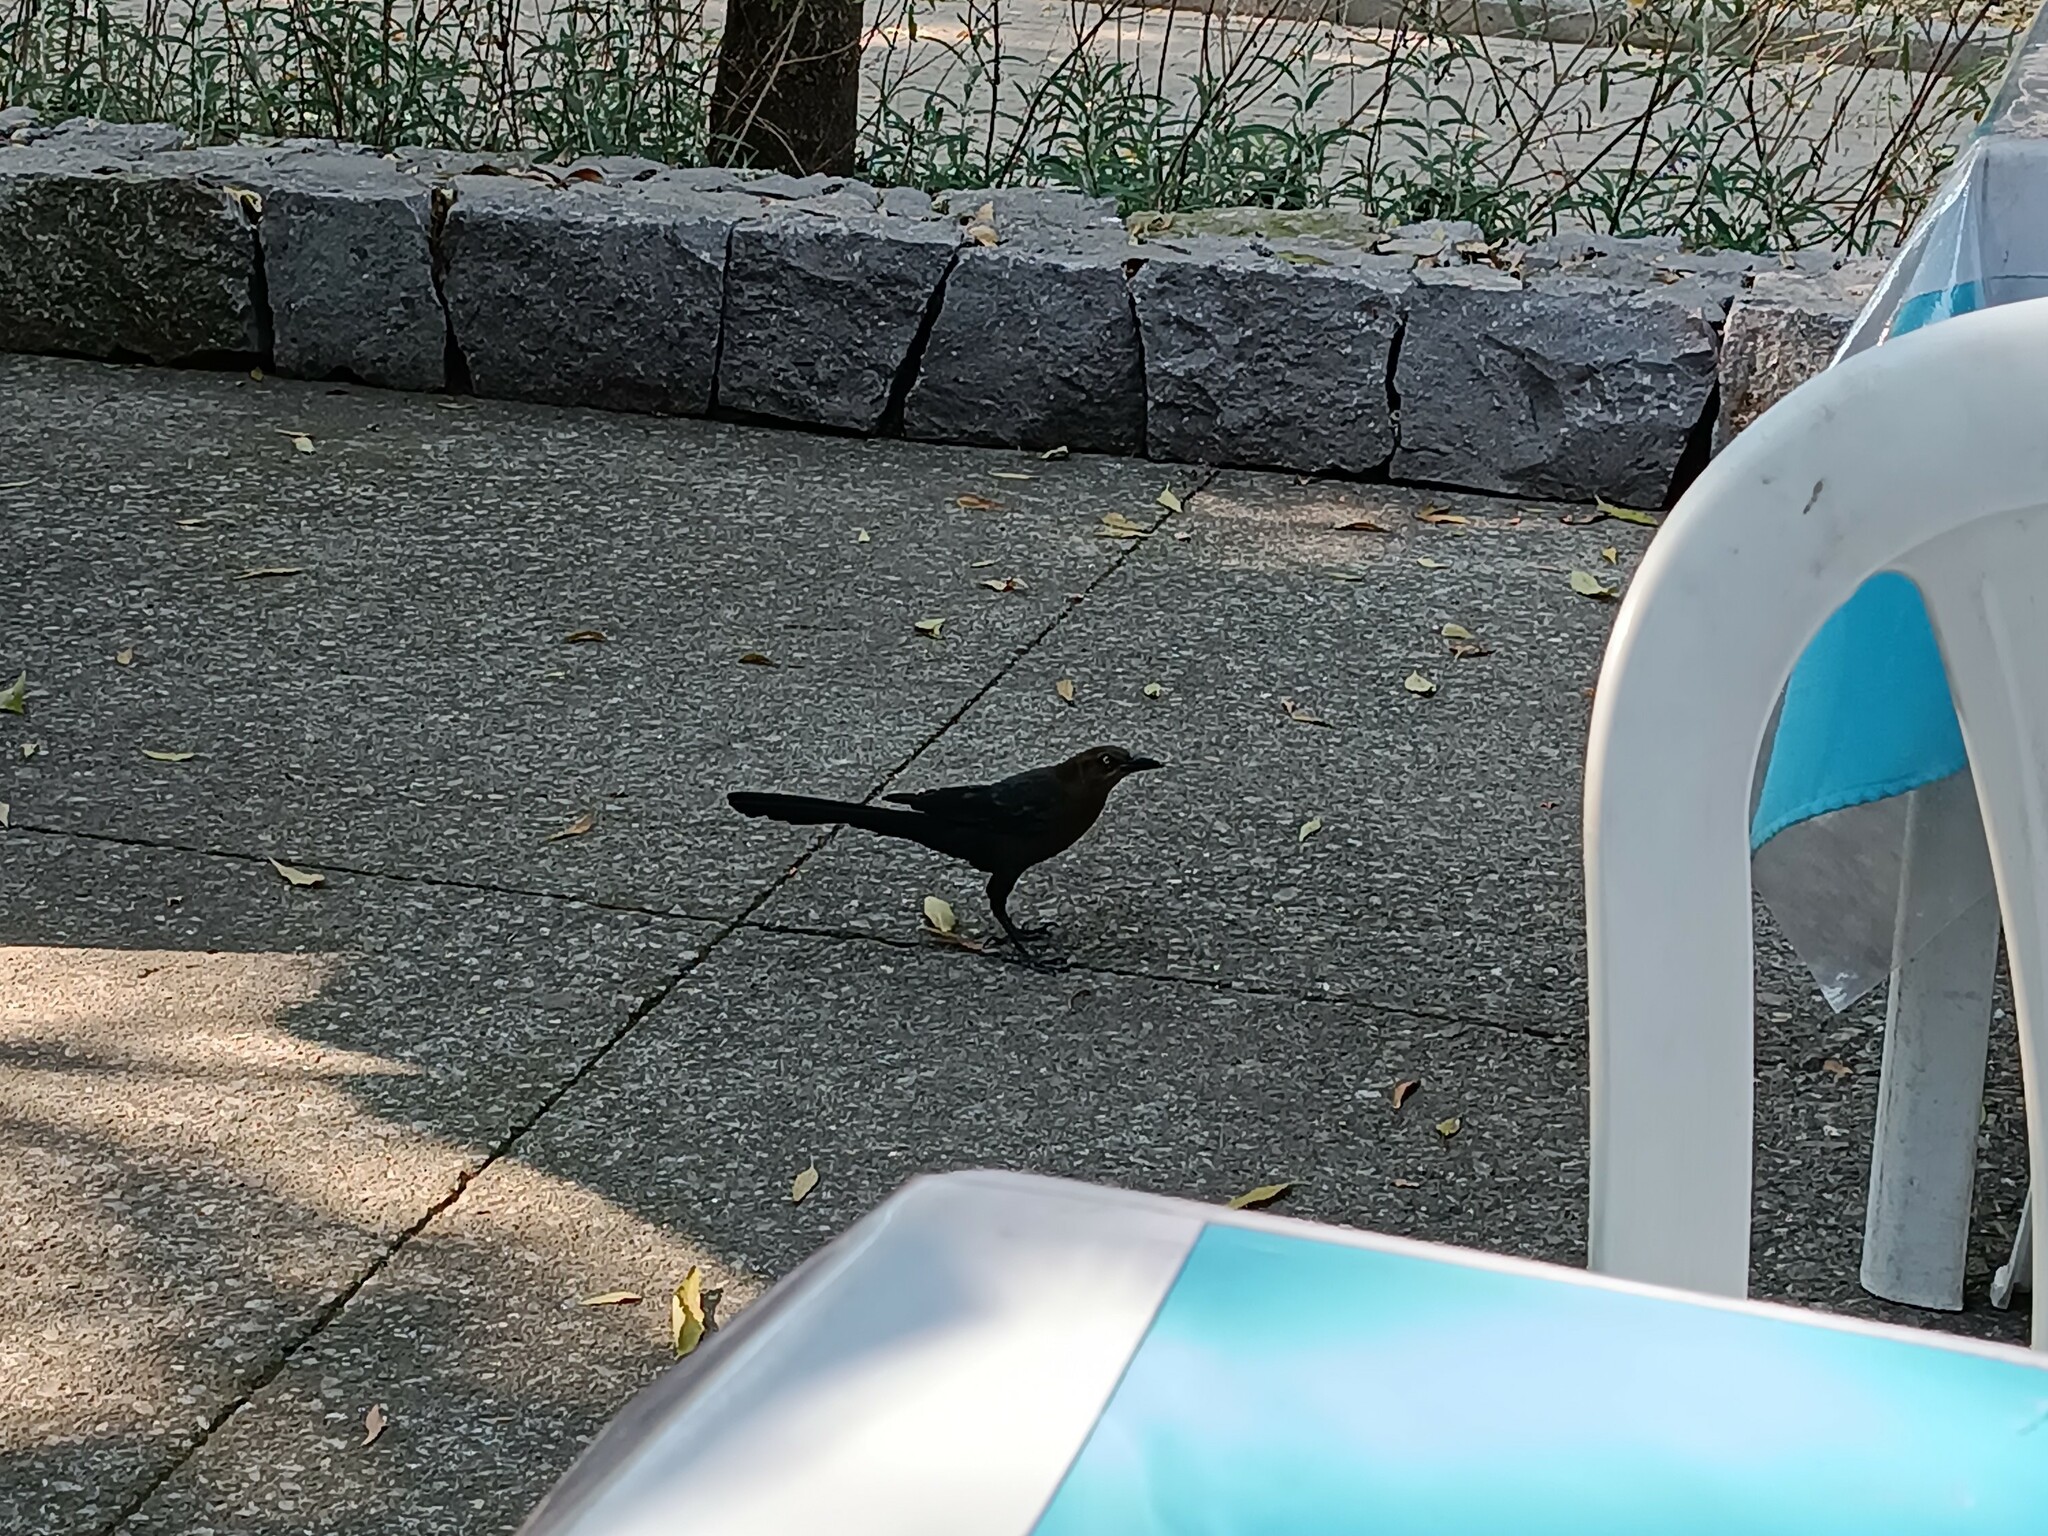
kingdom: Animalia
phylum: Chordata
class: Aves
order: Passeriformes
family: Icteridae
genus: Quiscalus
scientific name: Quiscalus mexicanus
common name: Great-tailed grackle
